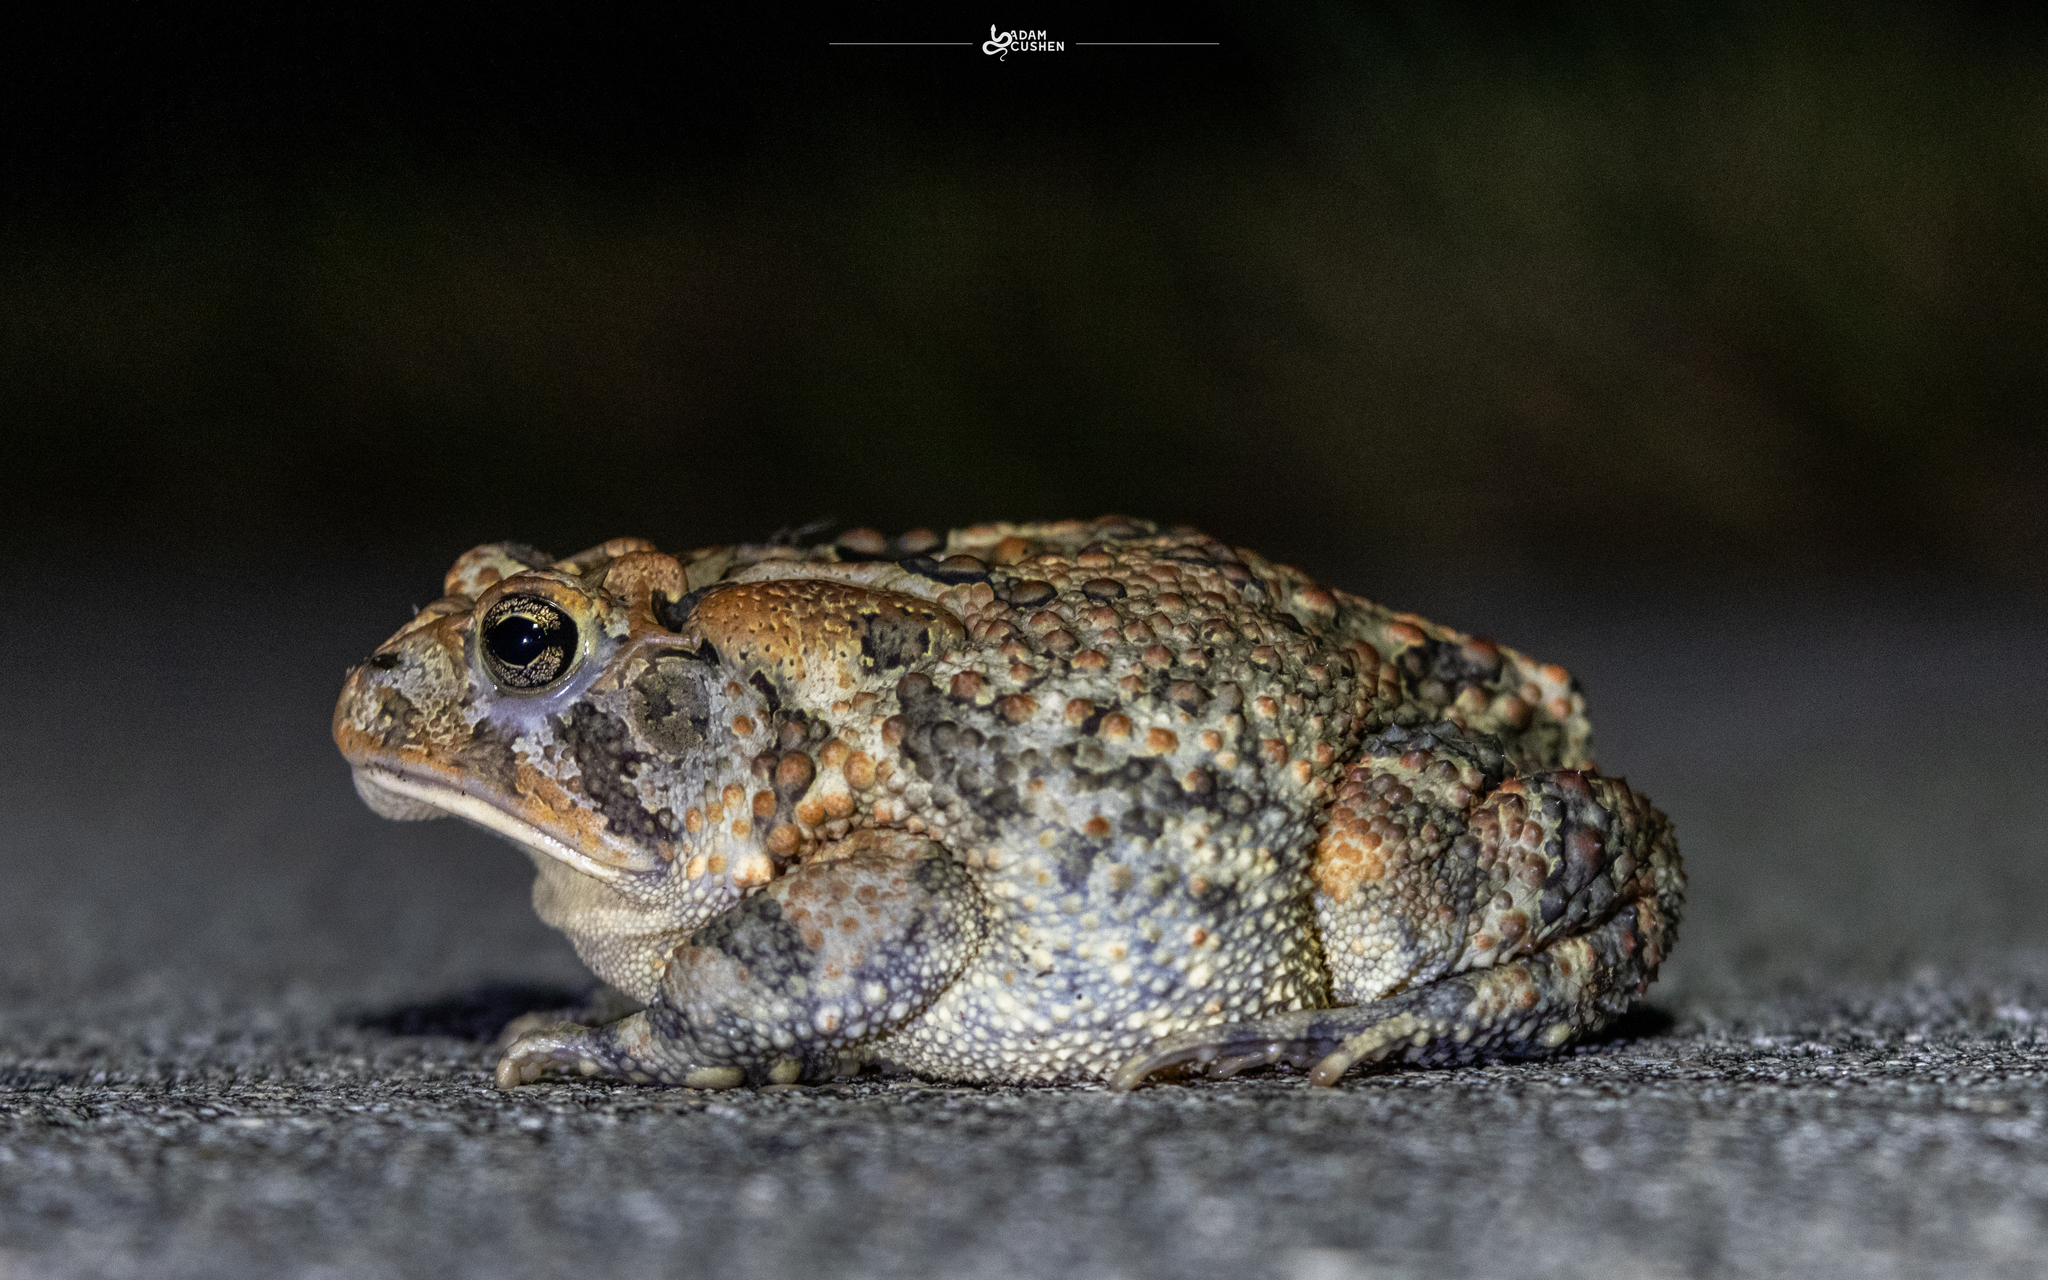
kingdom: Animalia
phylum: Chordata
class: Amphibia
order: Anura
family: Bufonidae
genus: Anaxyrus
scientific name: Anaxyrus terrestris
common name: Southern toad
